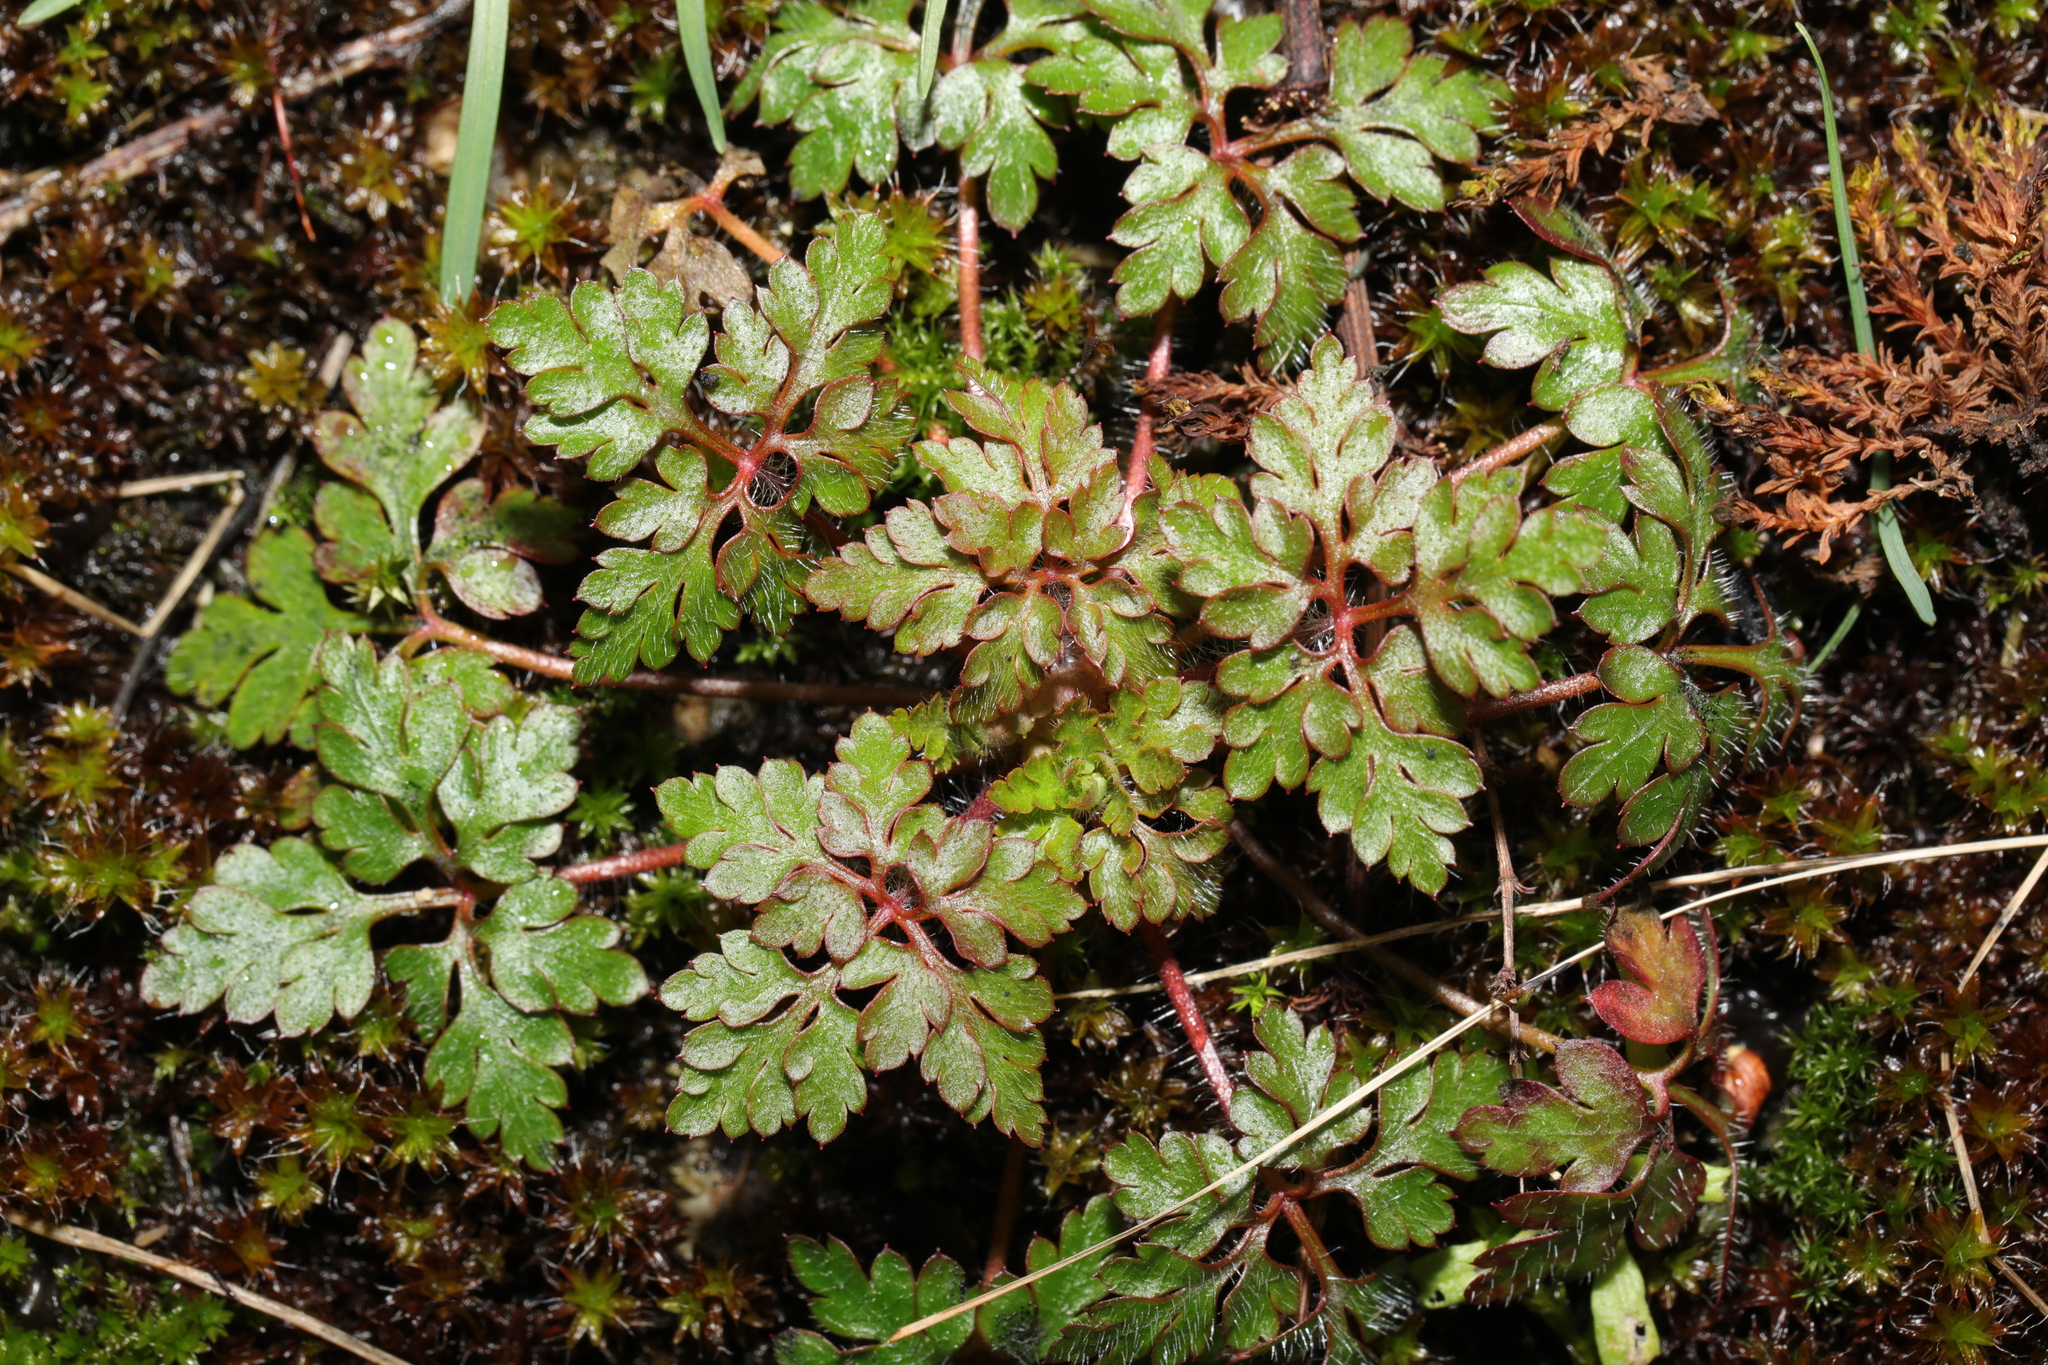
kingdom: Plantae
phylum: Tracheophyta
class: Magnoliopsida
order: Geraniales
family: Geraniaceae
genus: Geranium
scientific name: Geranium robertianum
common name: Herb-robert
